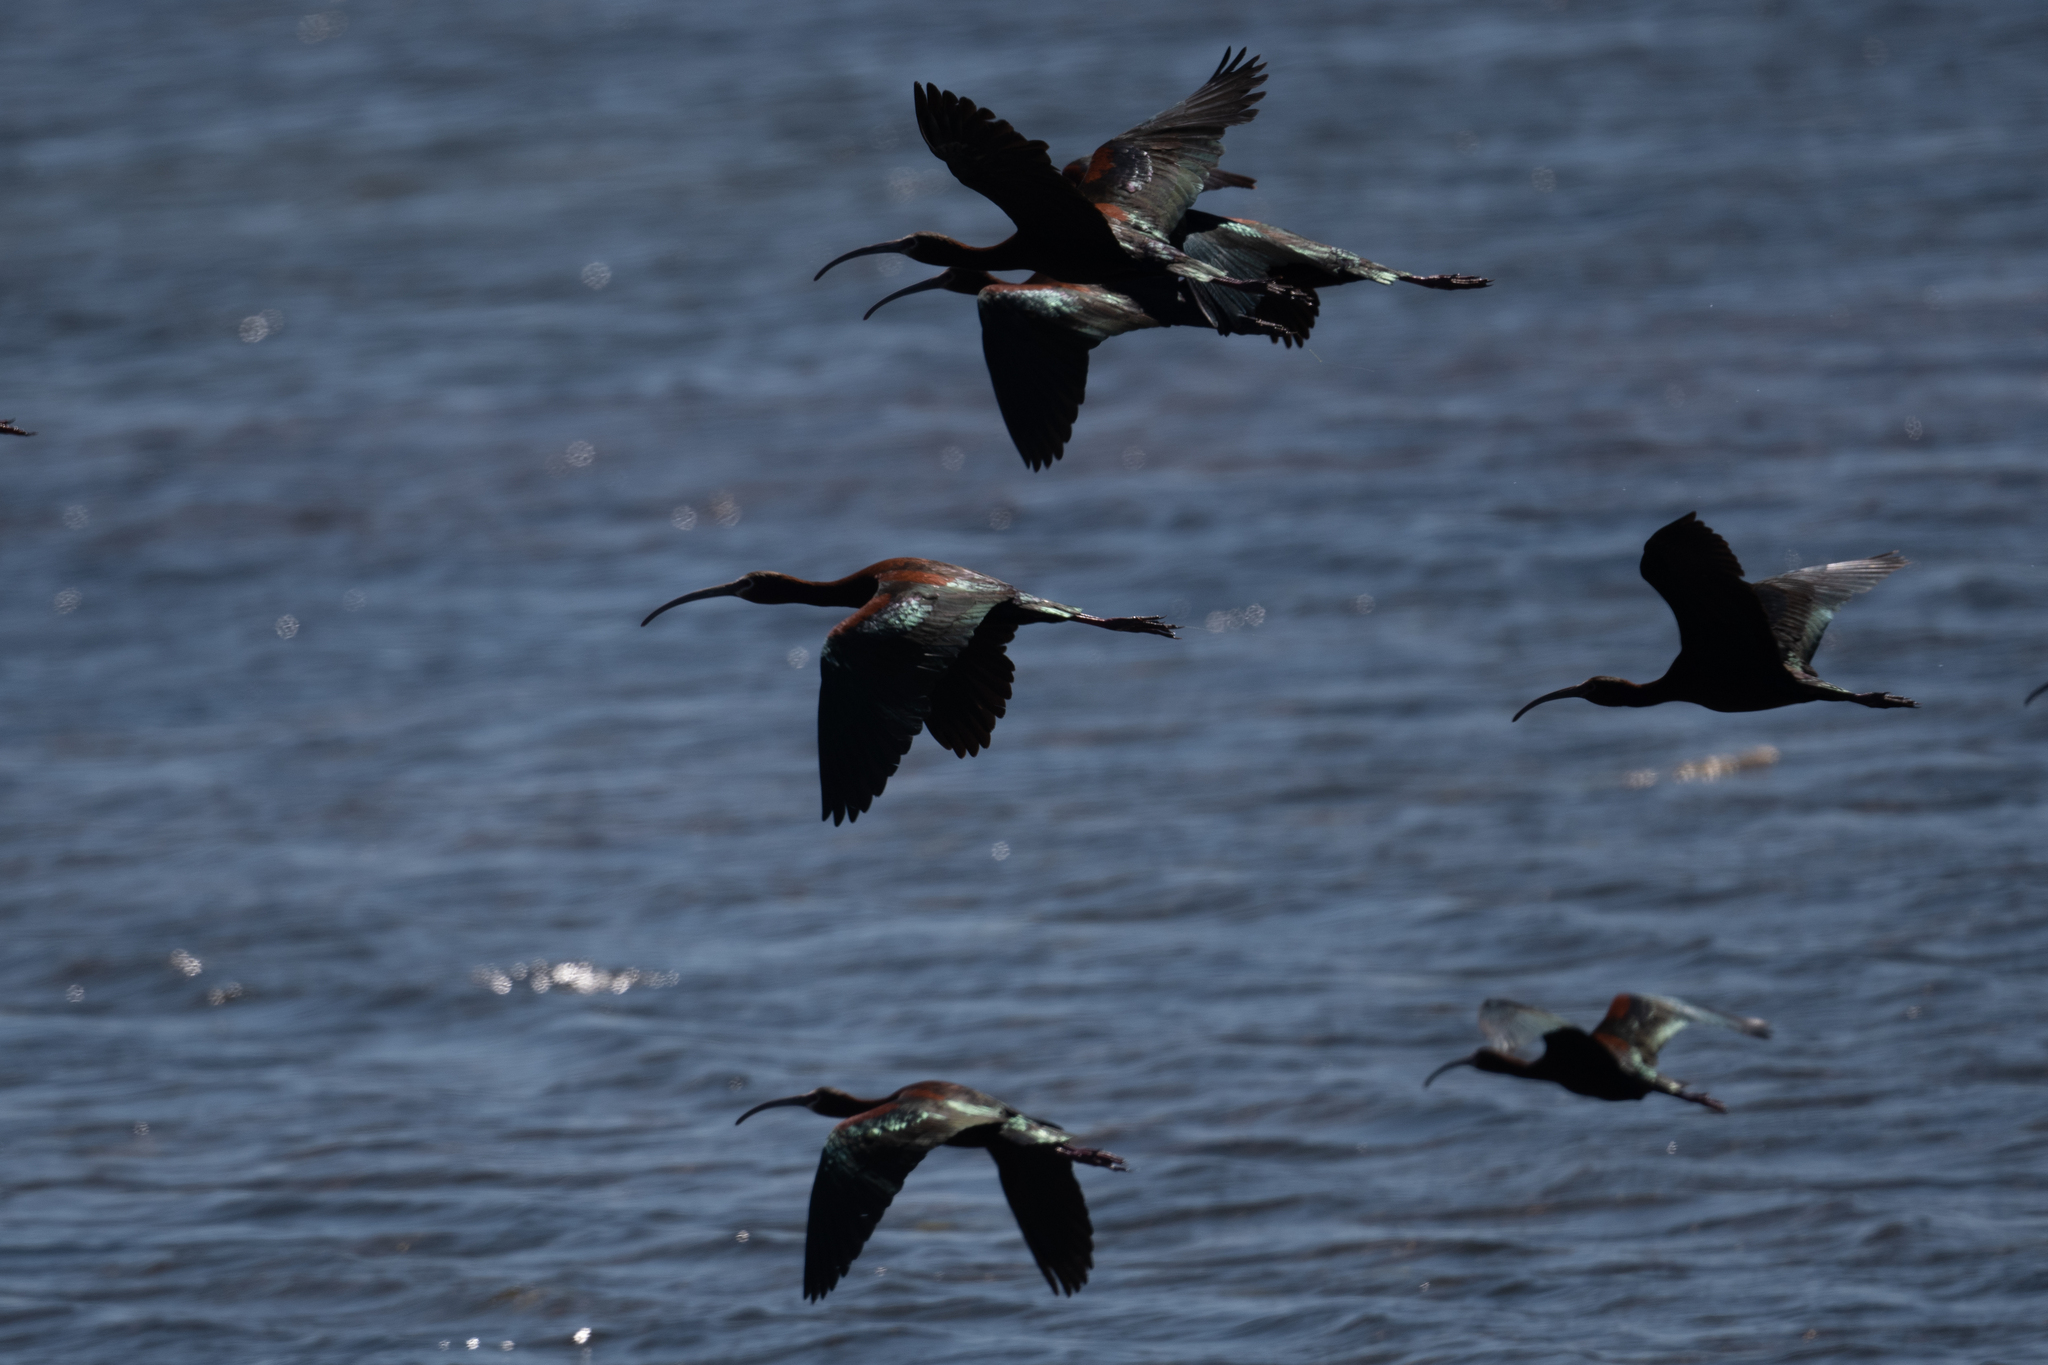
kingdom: Animalia
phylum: Chordata
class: Aves
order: Pelecaniformes
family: Threskiornithidae
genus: Plegadis
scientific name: Plegadis chihi
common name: White-faced ibis
